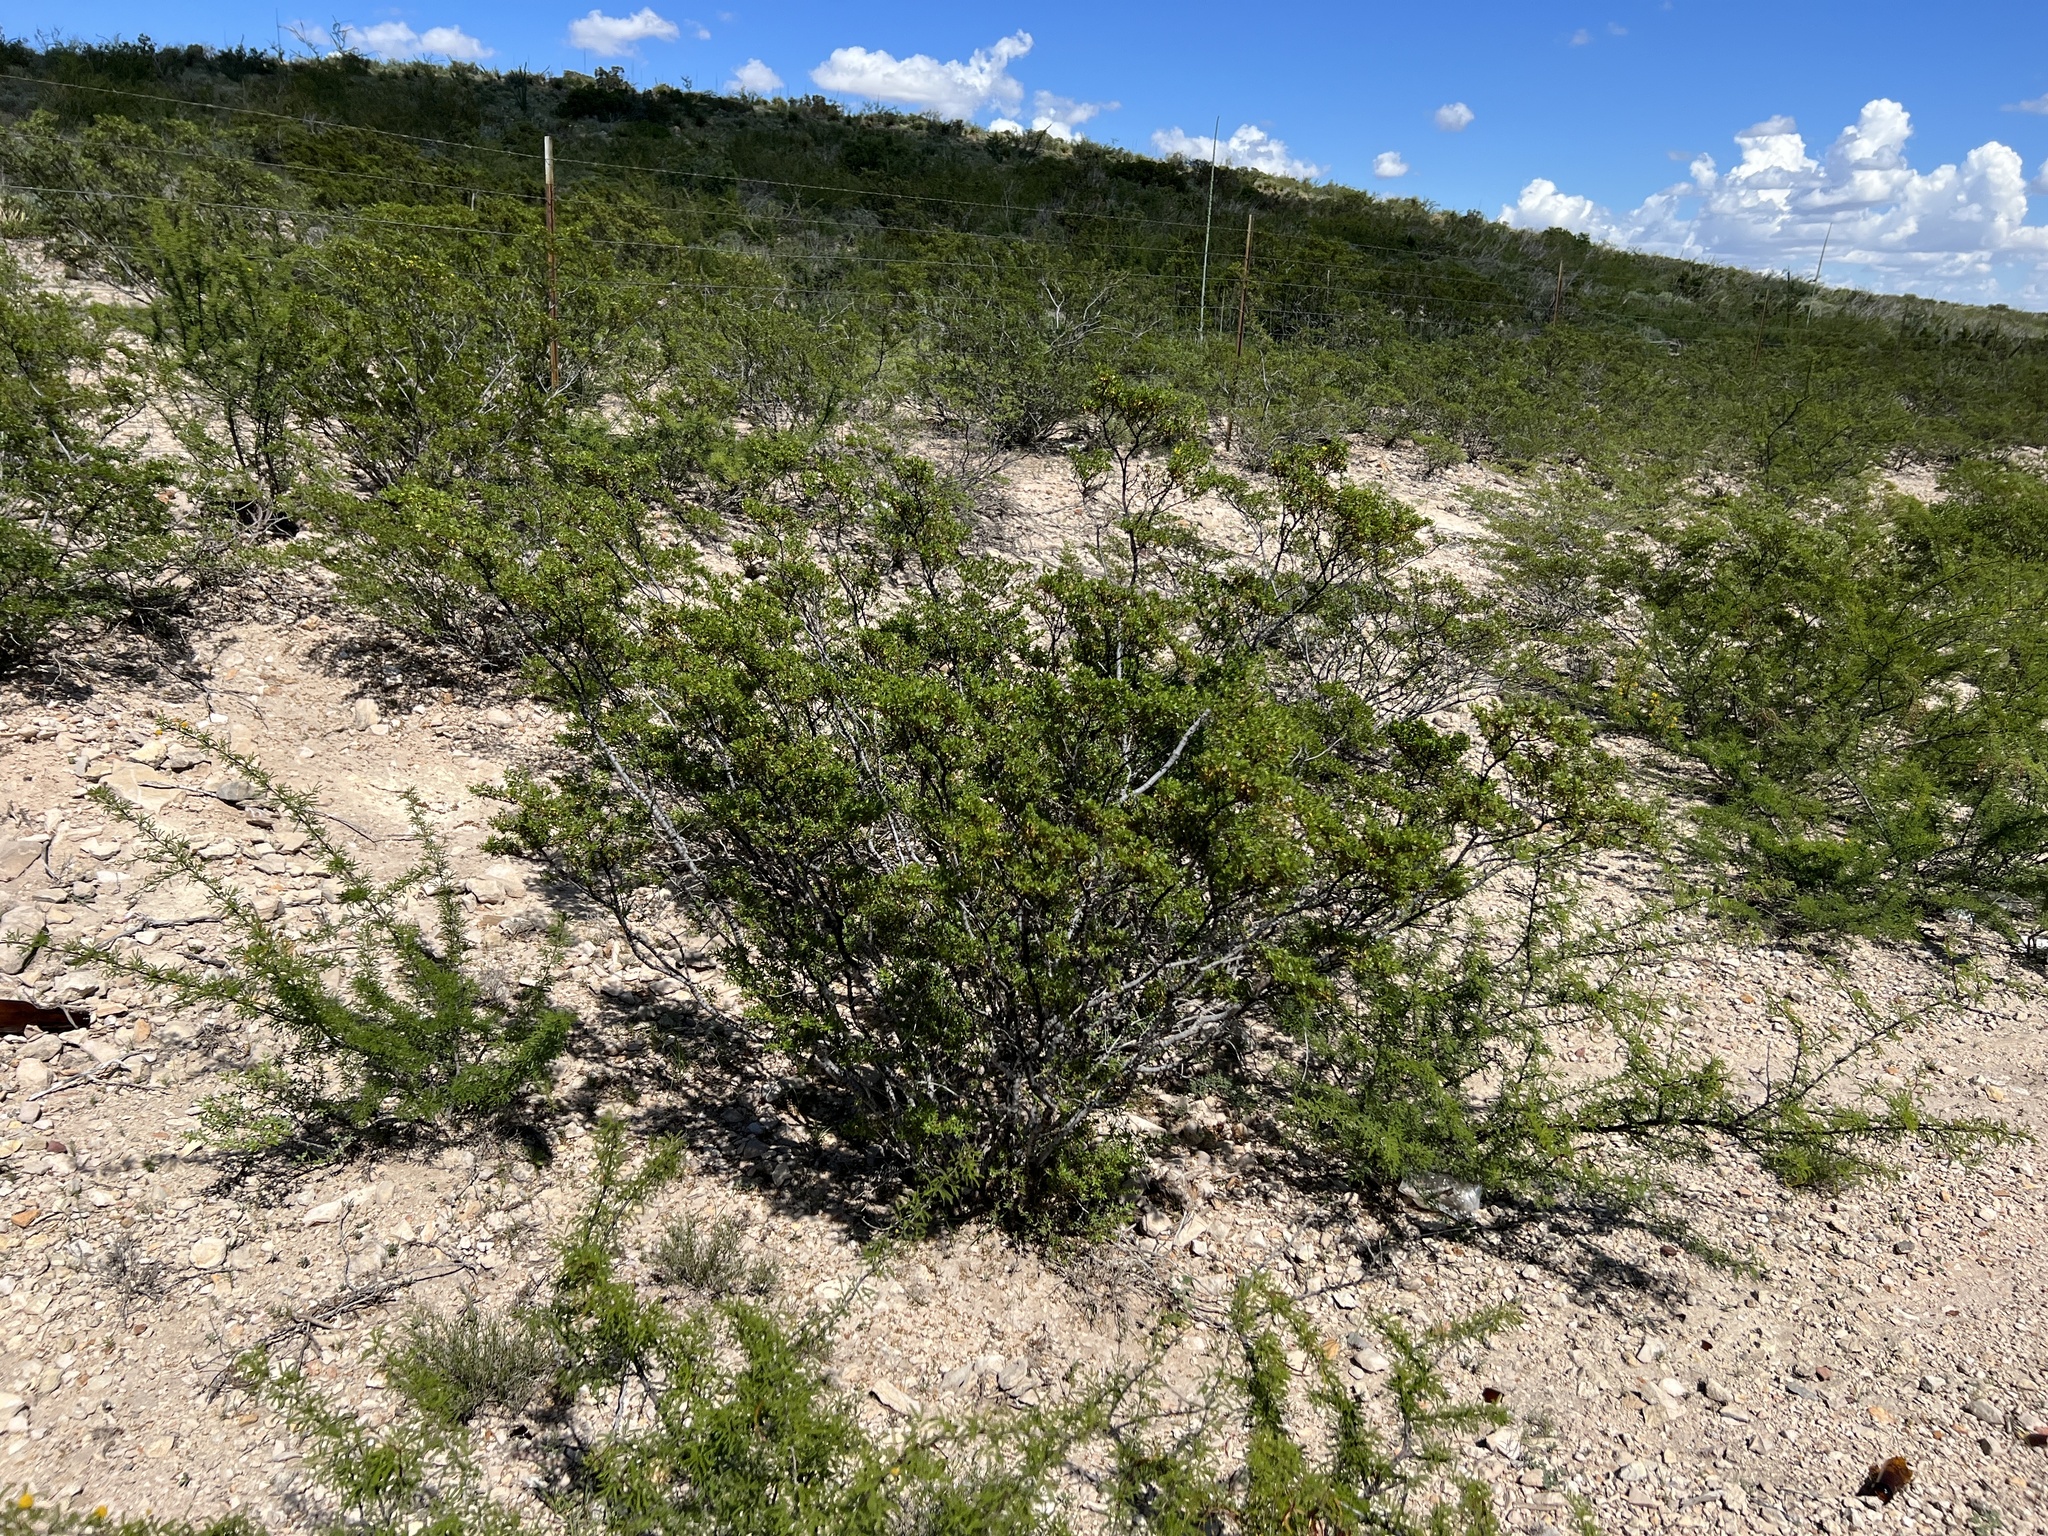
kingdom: Plantae
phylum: Tracheophyta
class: Magnoliopsida
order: Zygophyllales
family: Zygophyllaceae
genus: Larrea
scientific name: Larrea tridentata
